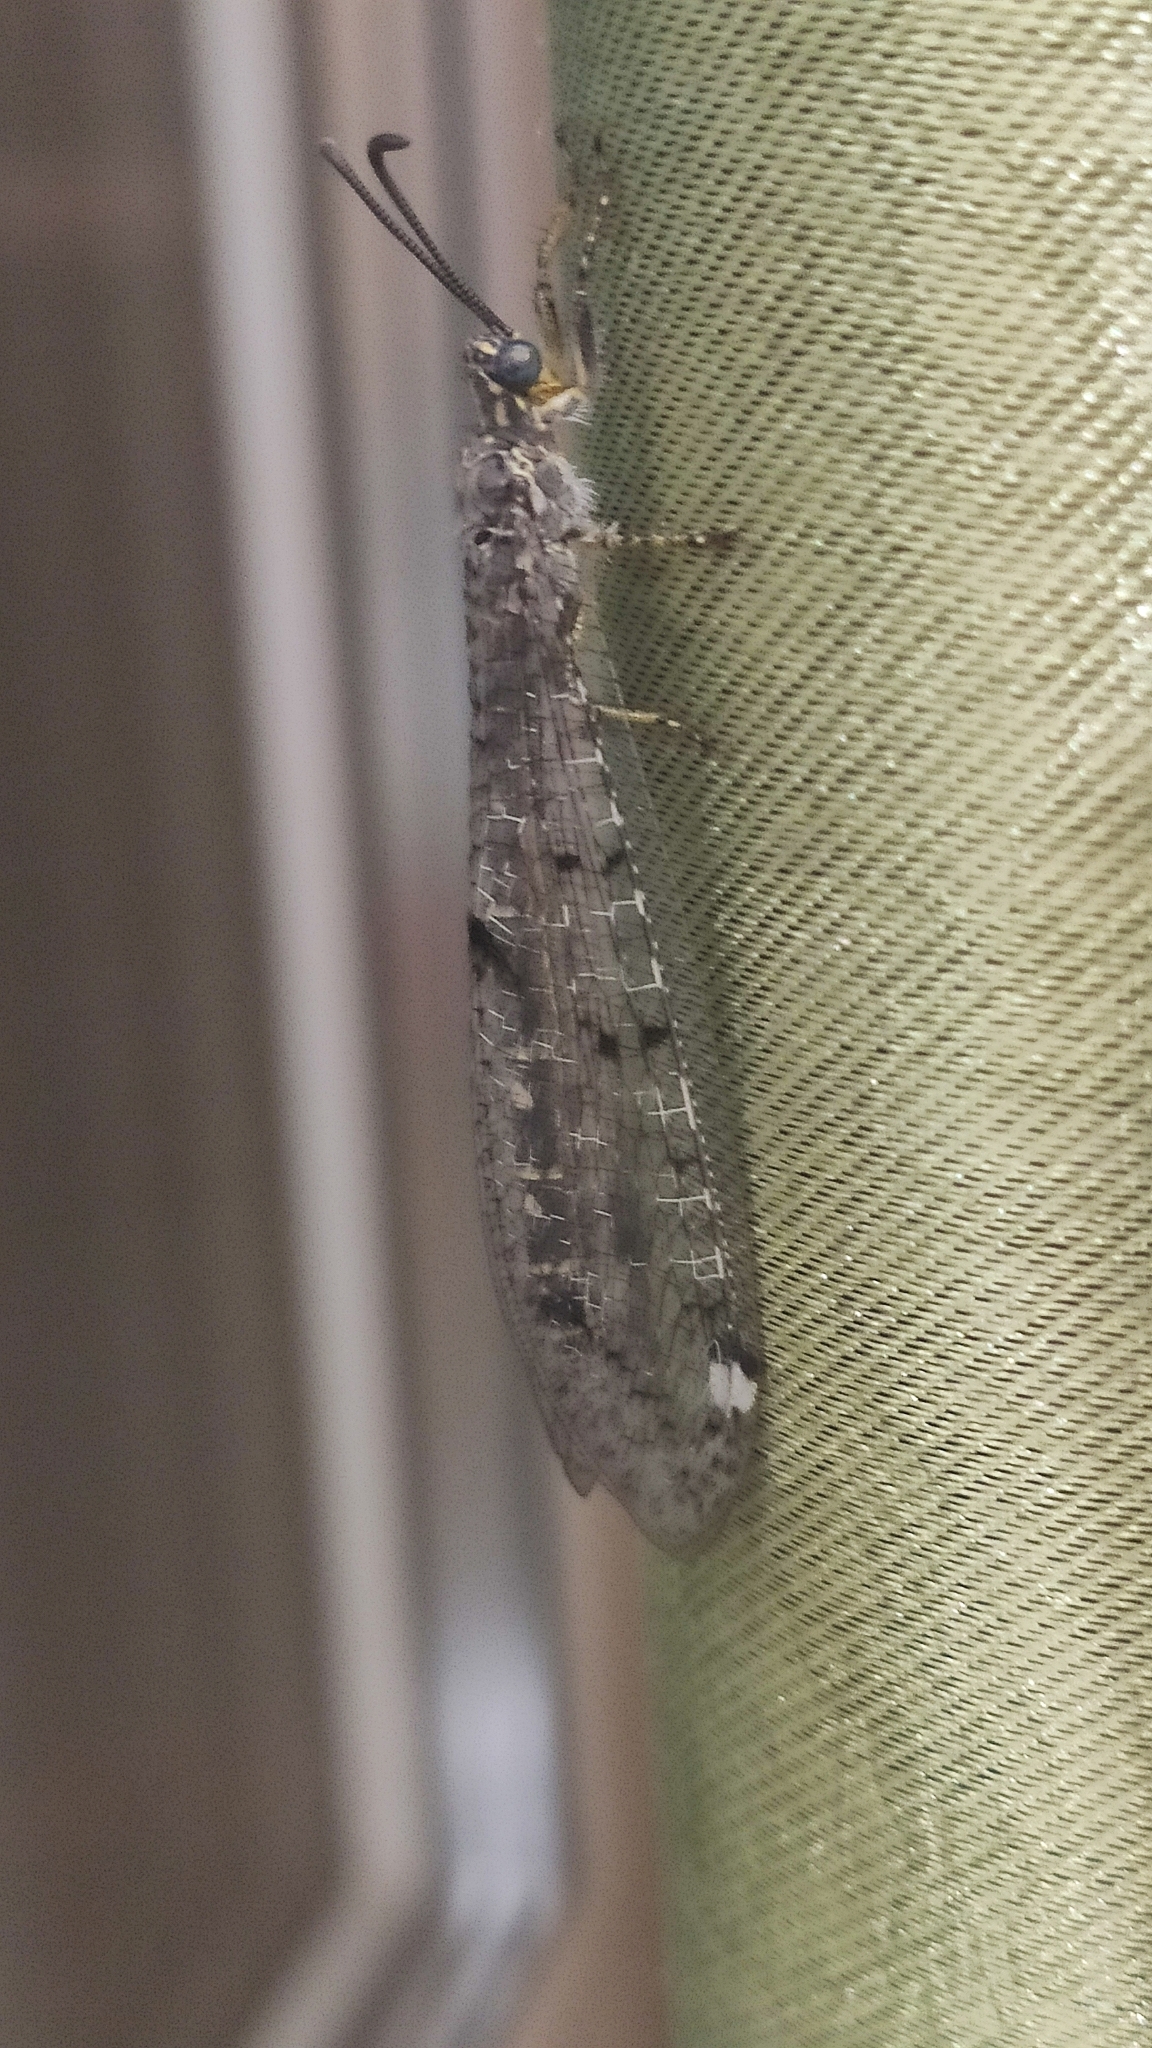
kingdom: Animalia
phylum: Arthropoda
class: Insecta
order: Neuroptera
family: Myrmeleontidae
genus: Distoleon
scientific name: Distoleon tetragrammicus
